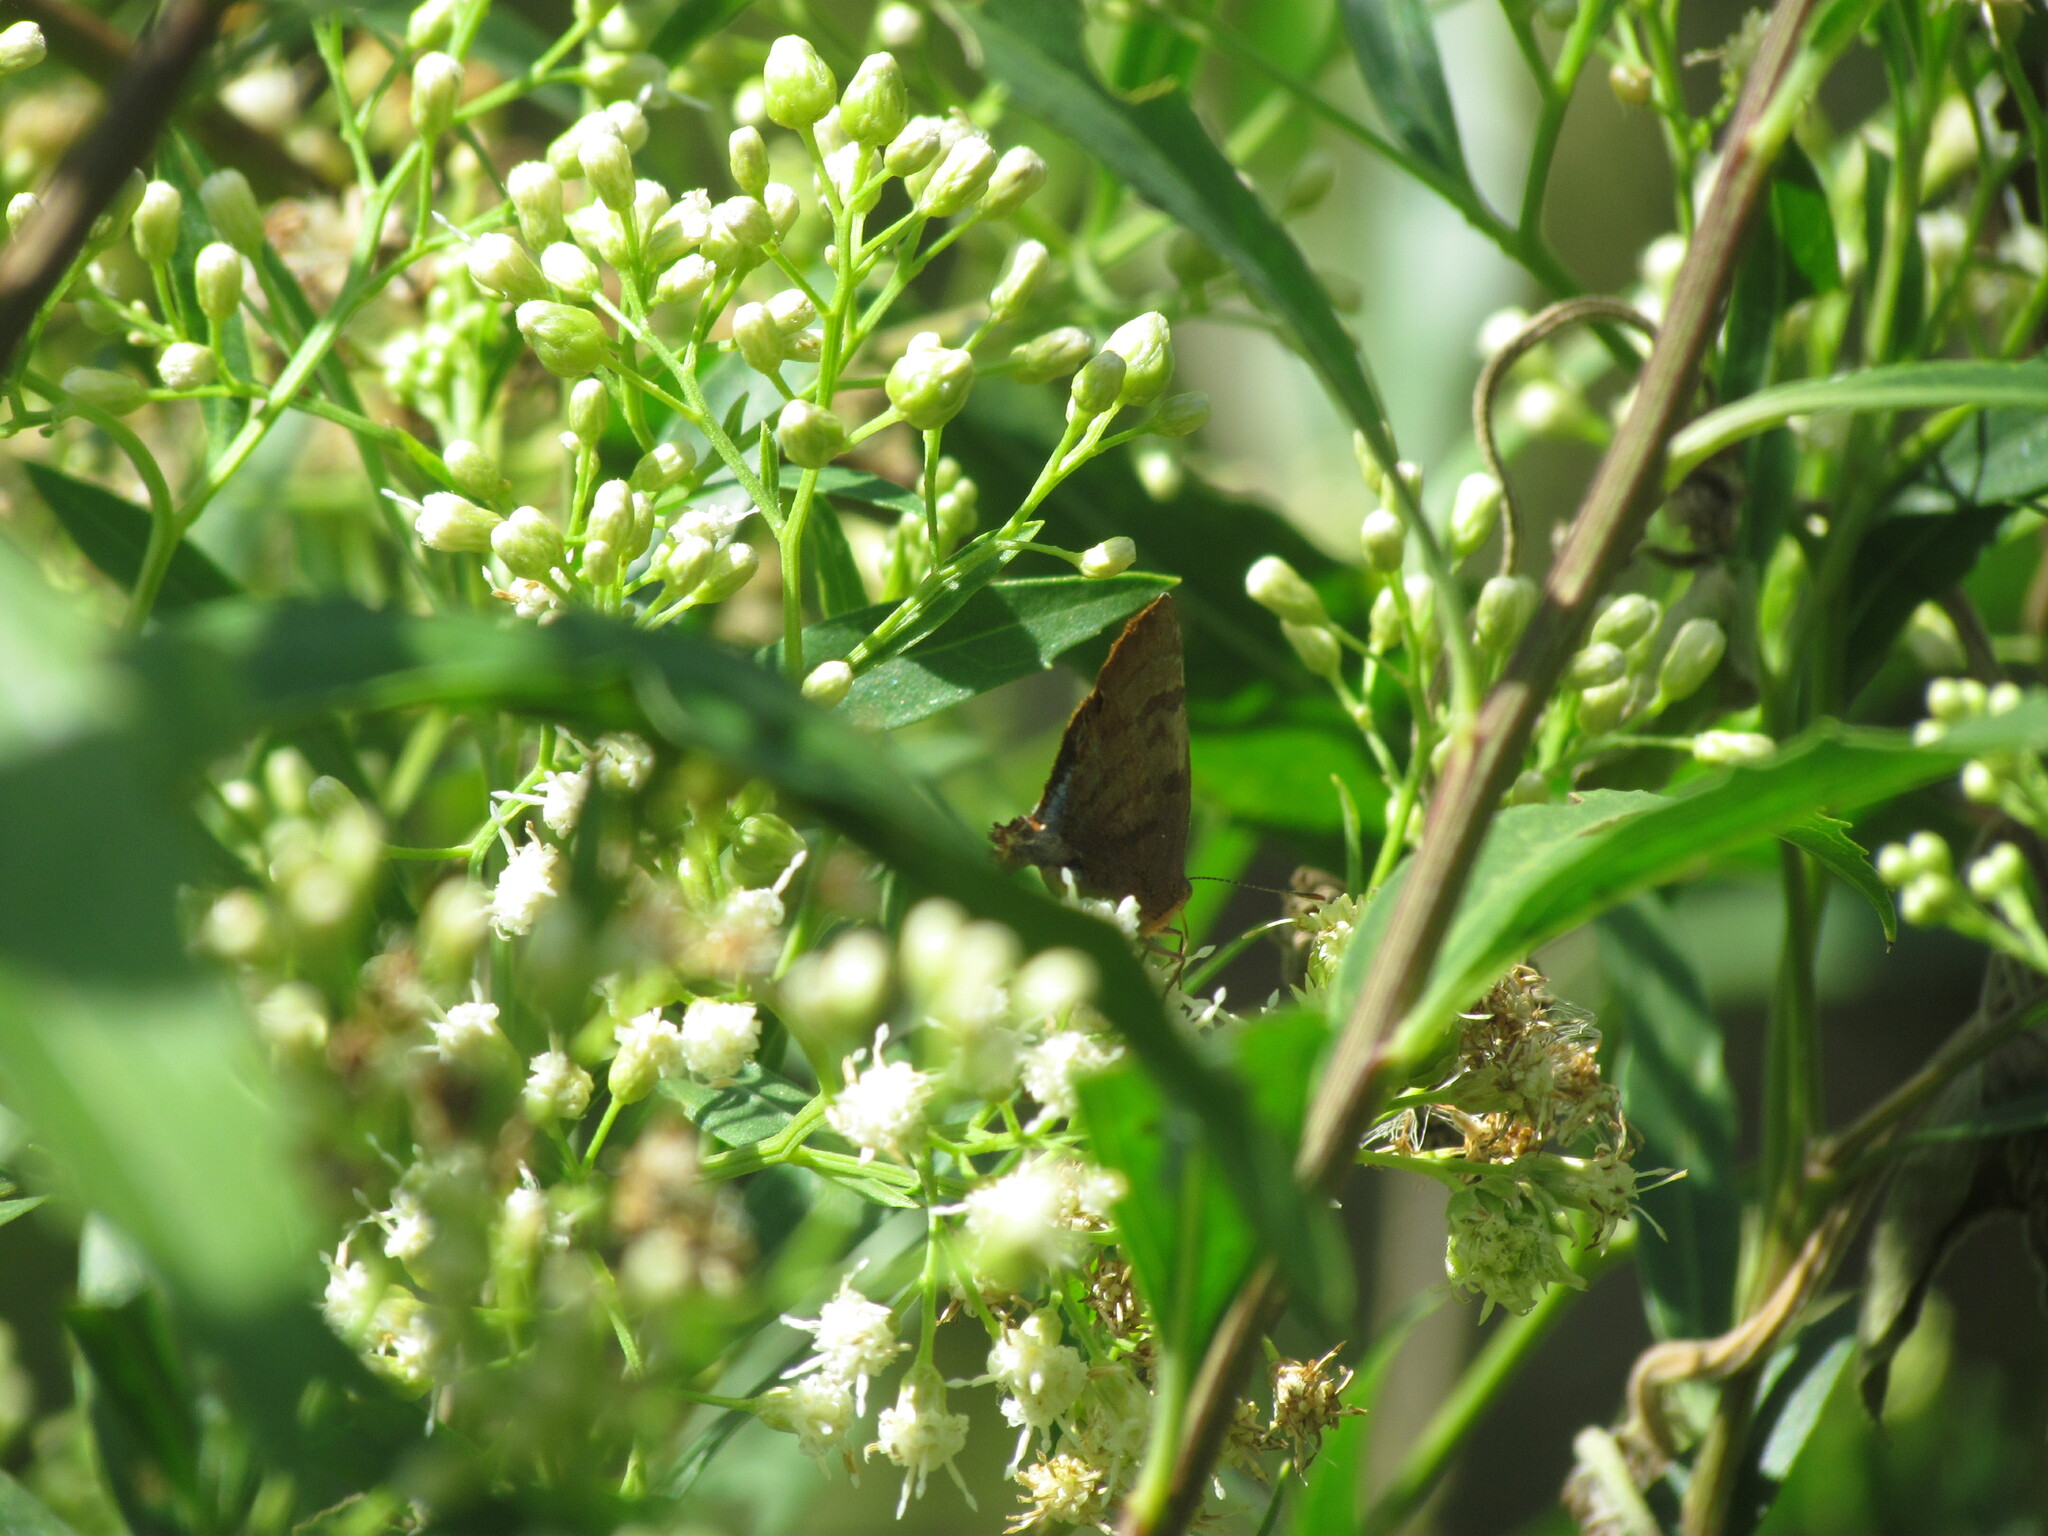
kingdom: Animalia
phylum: Arthropoda
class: Insecta
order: Lepidoptera
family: Lycaenidae
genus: Thecla
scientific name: Thecla marius
